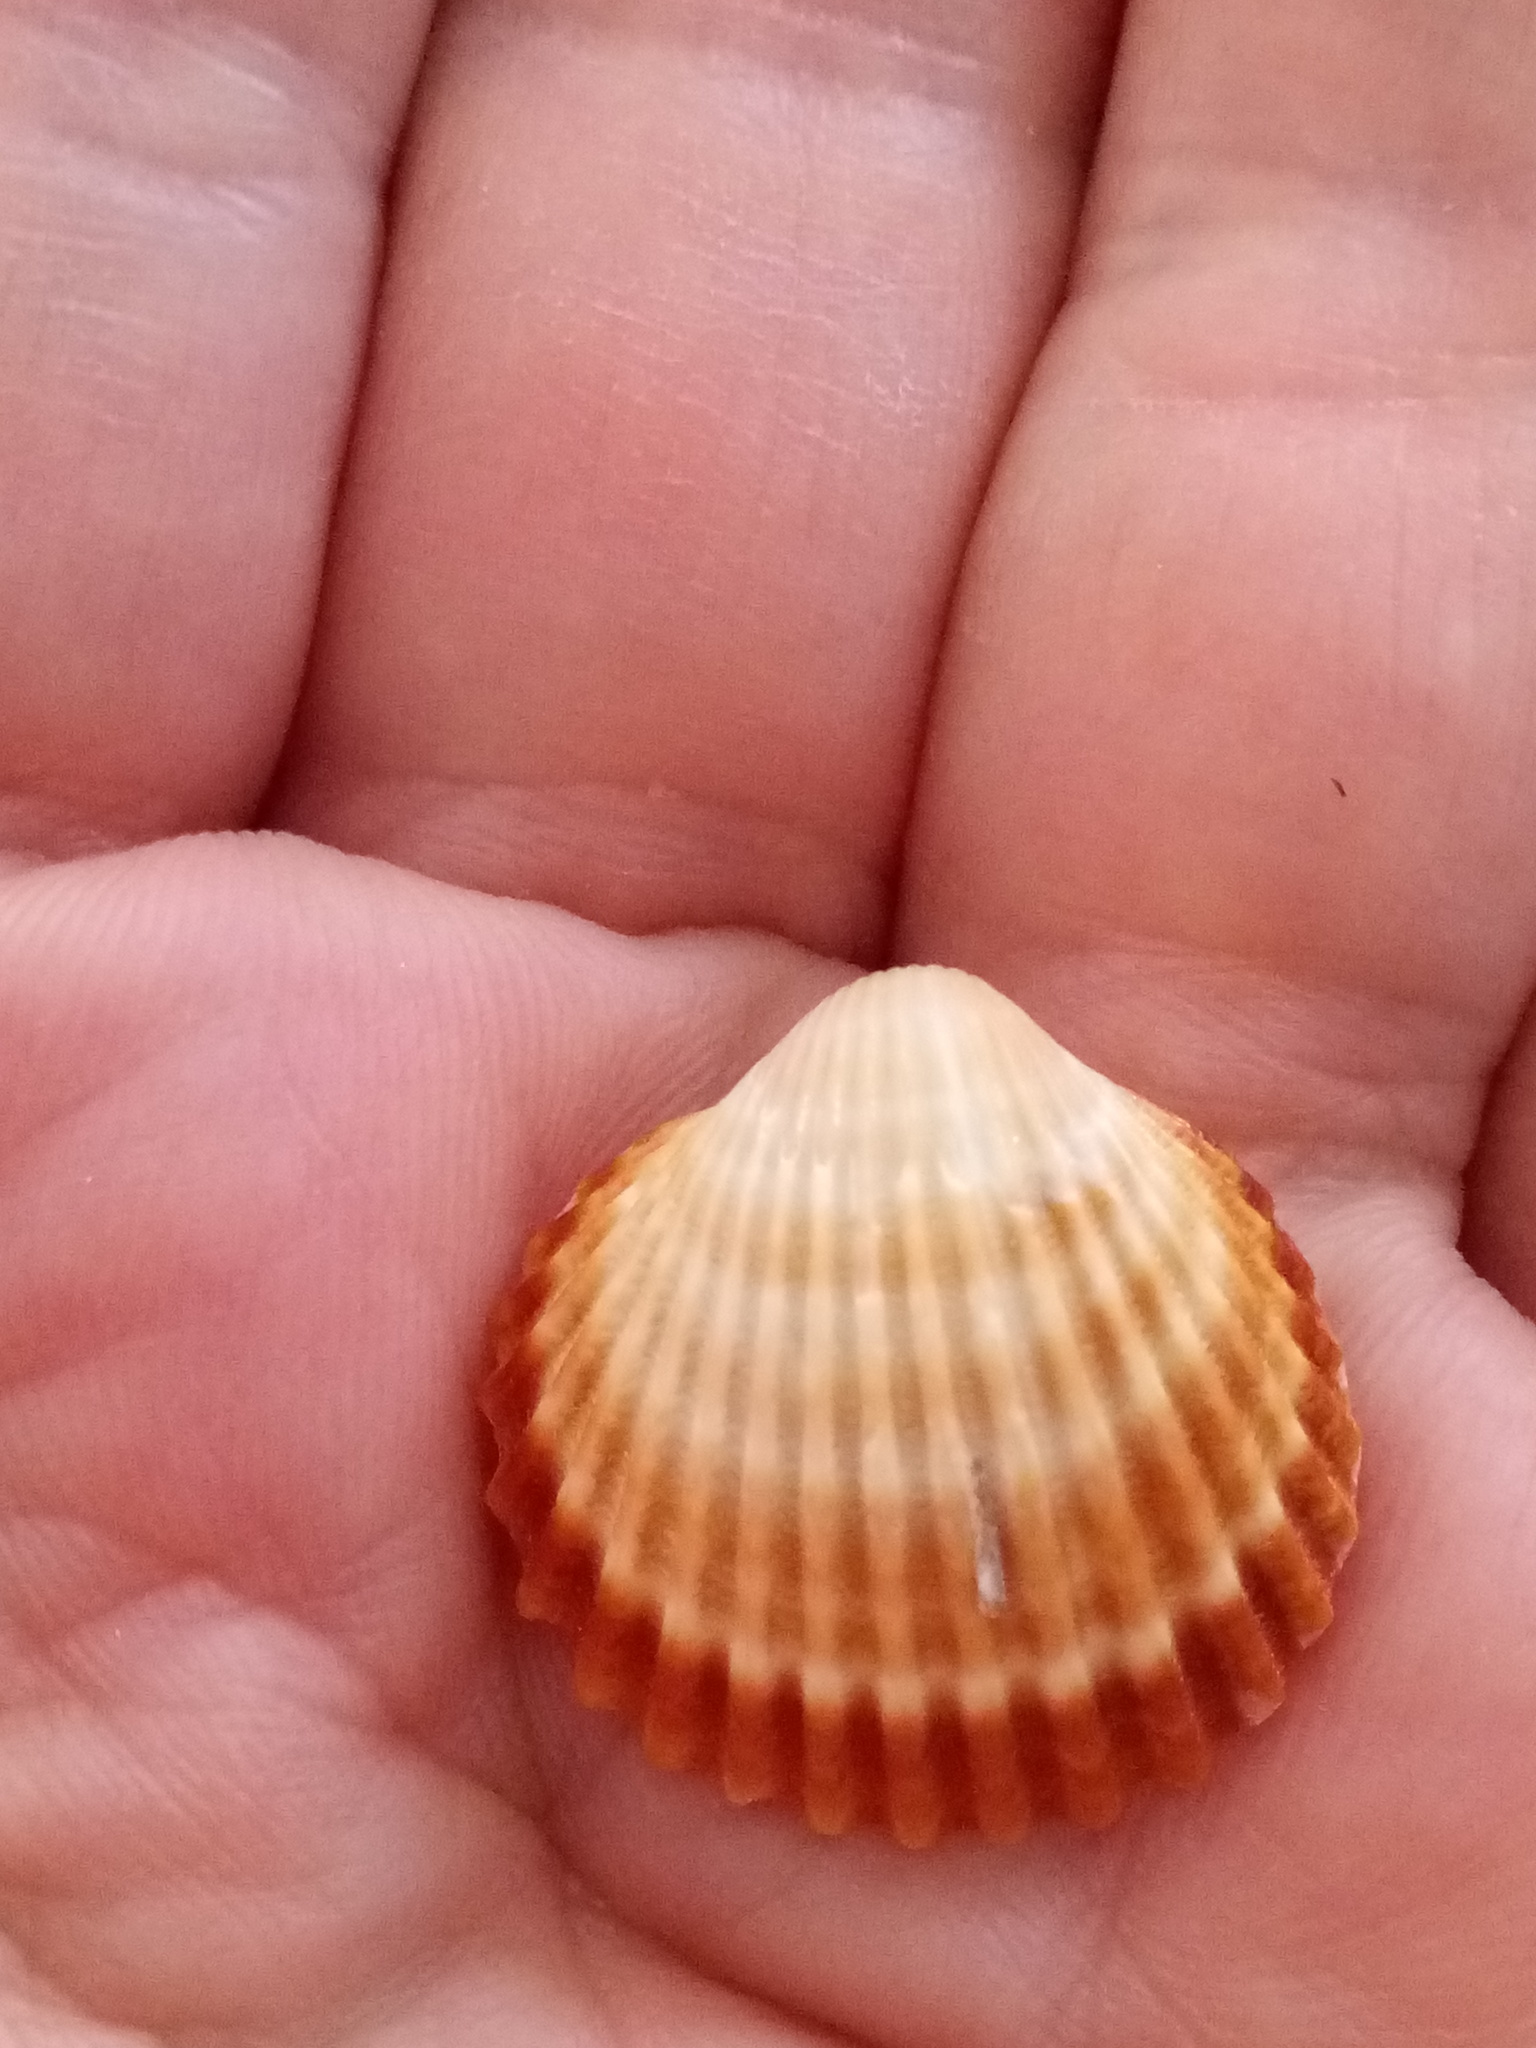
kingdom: Animalia
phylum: Mollusca
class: Bivalvia
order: Cardiida
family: Cardiidae
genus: Acanthocardia
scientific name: Acanthocardia tuberculata
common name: Rough cockle
